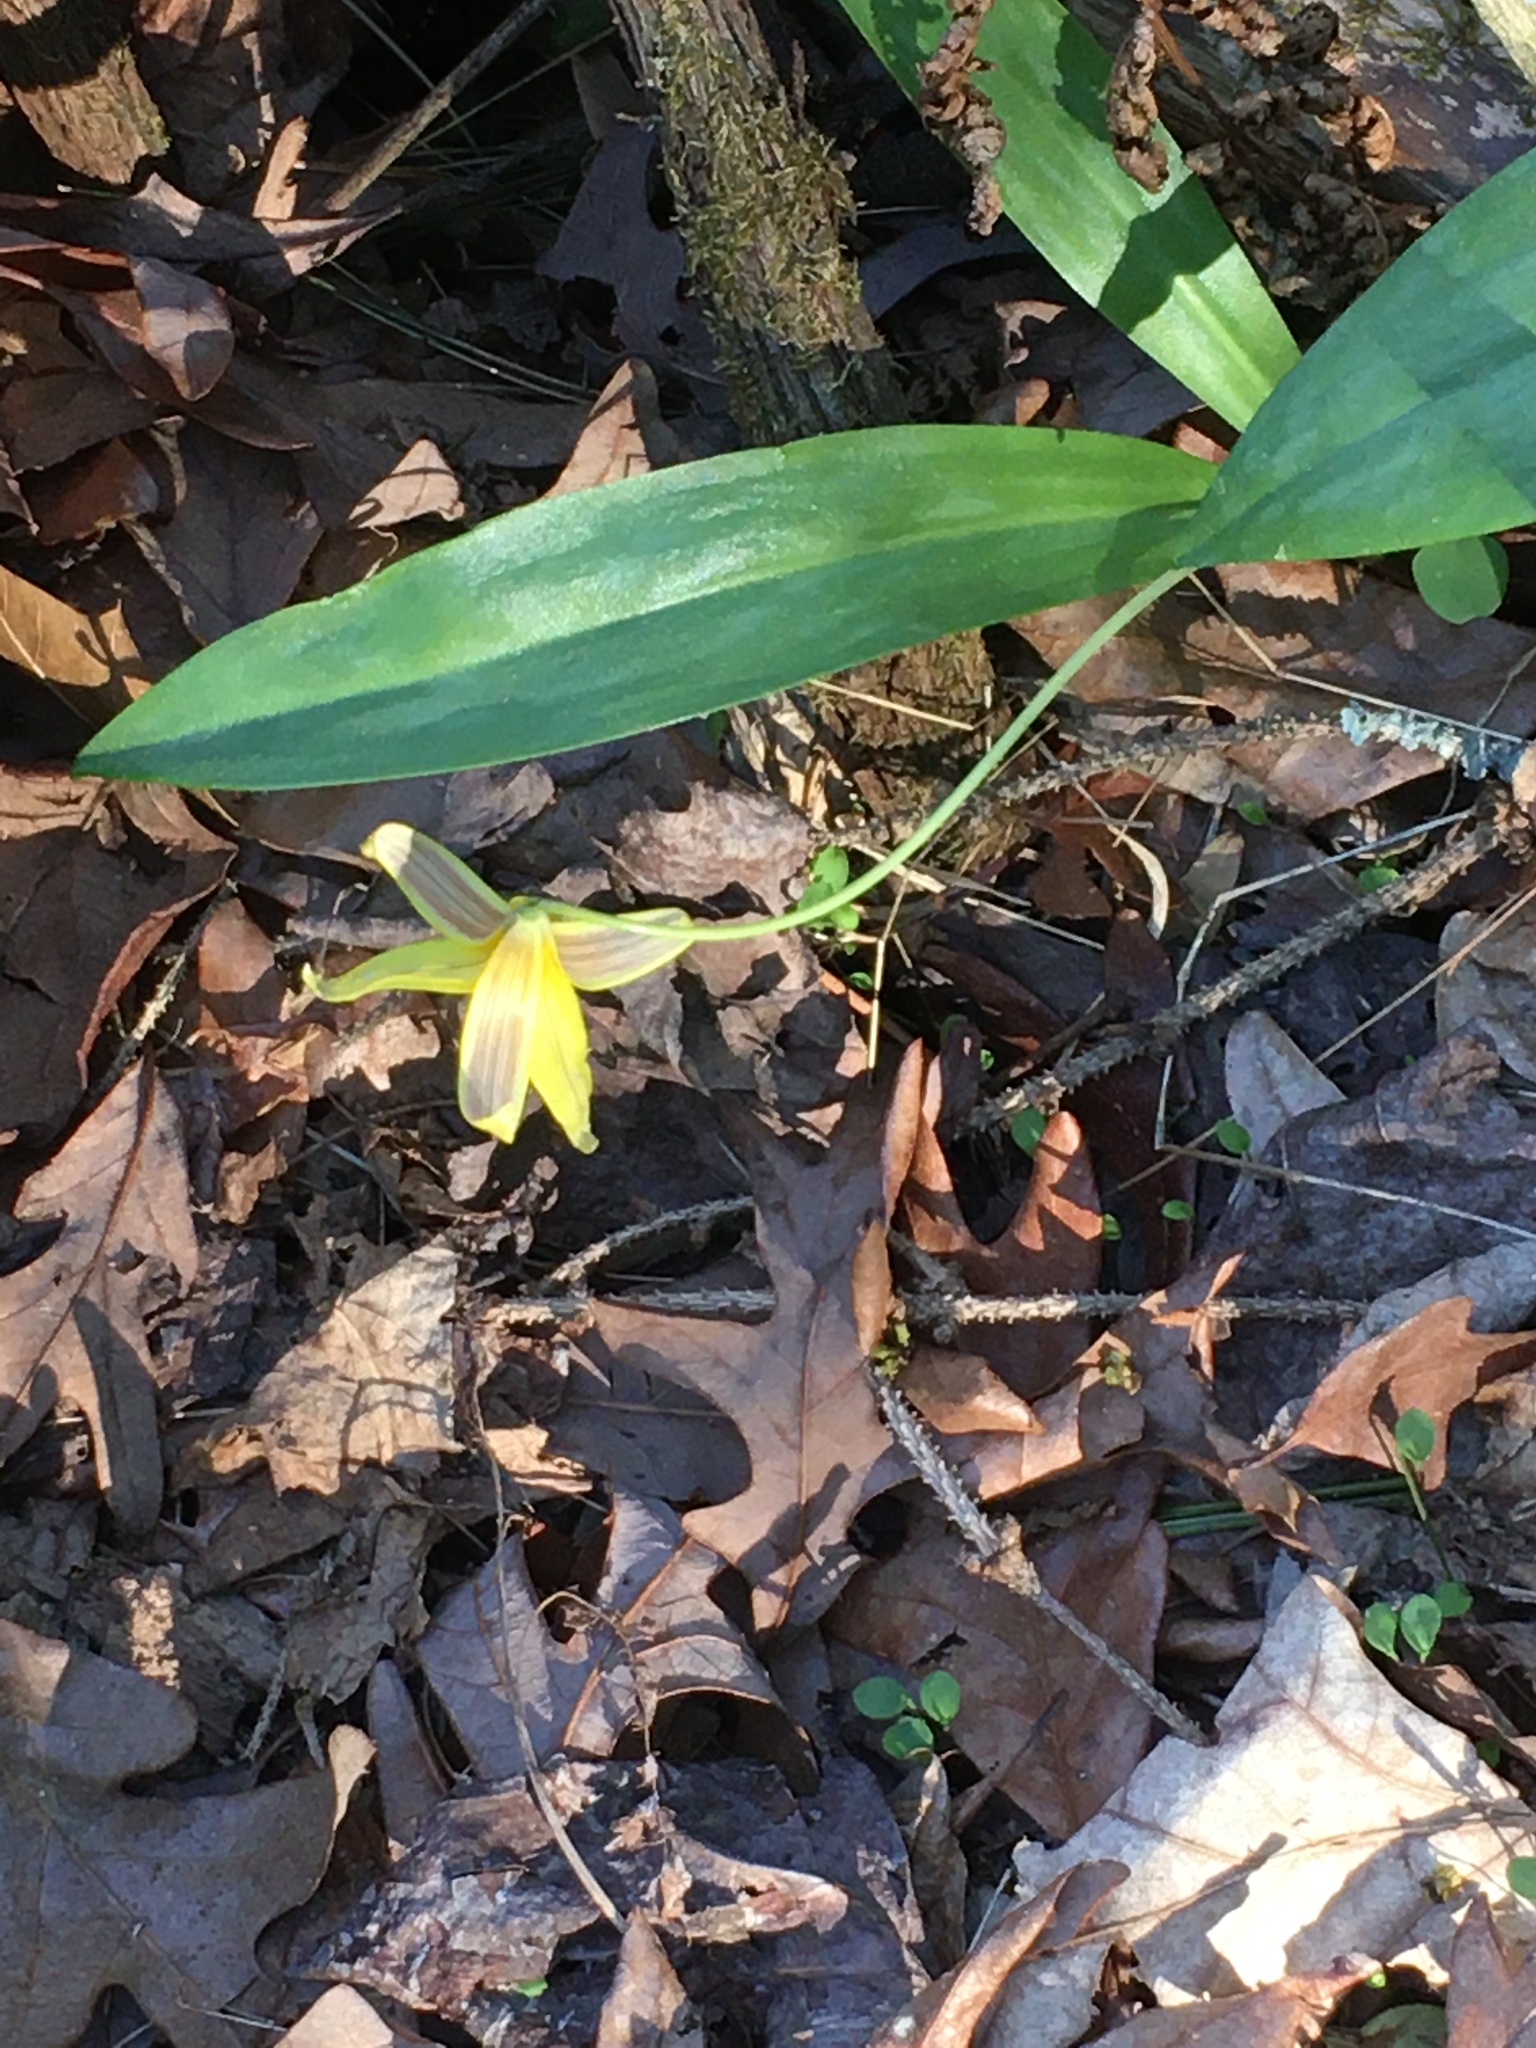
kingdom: Plantae
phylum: Tracheophyta
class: Liliopsida
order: Liliales
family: Liliaceae
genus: Erythronium
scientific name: Erythronium americanum
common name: Yellow adder's-tongue
